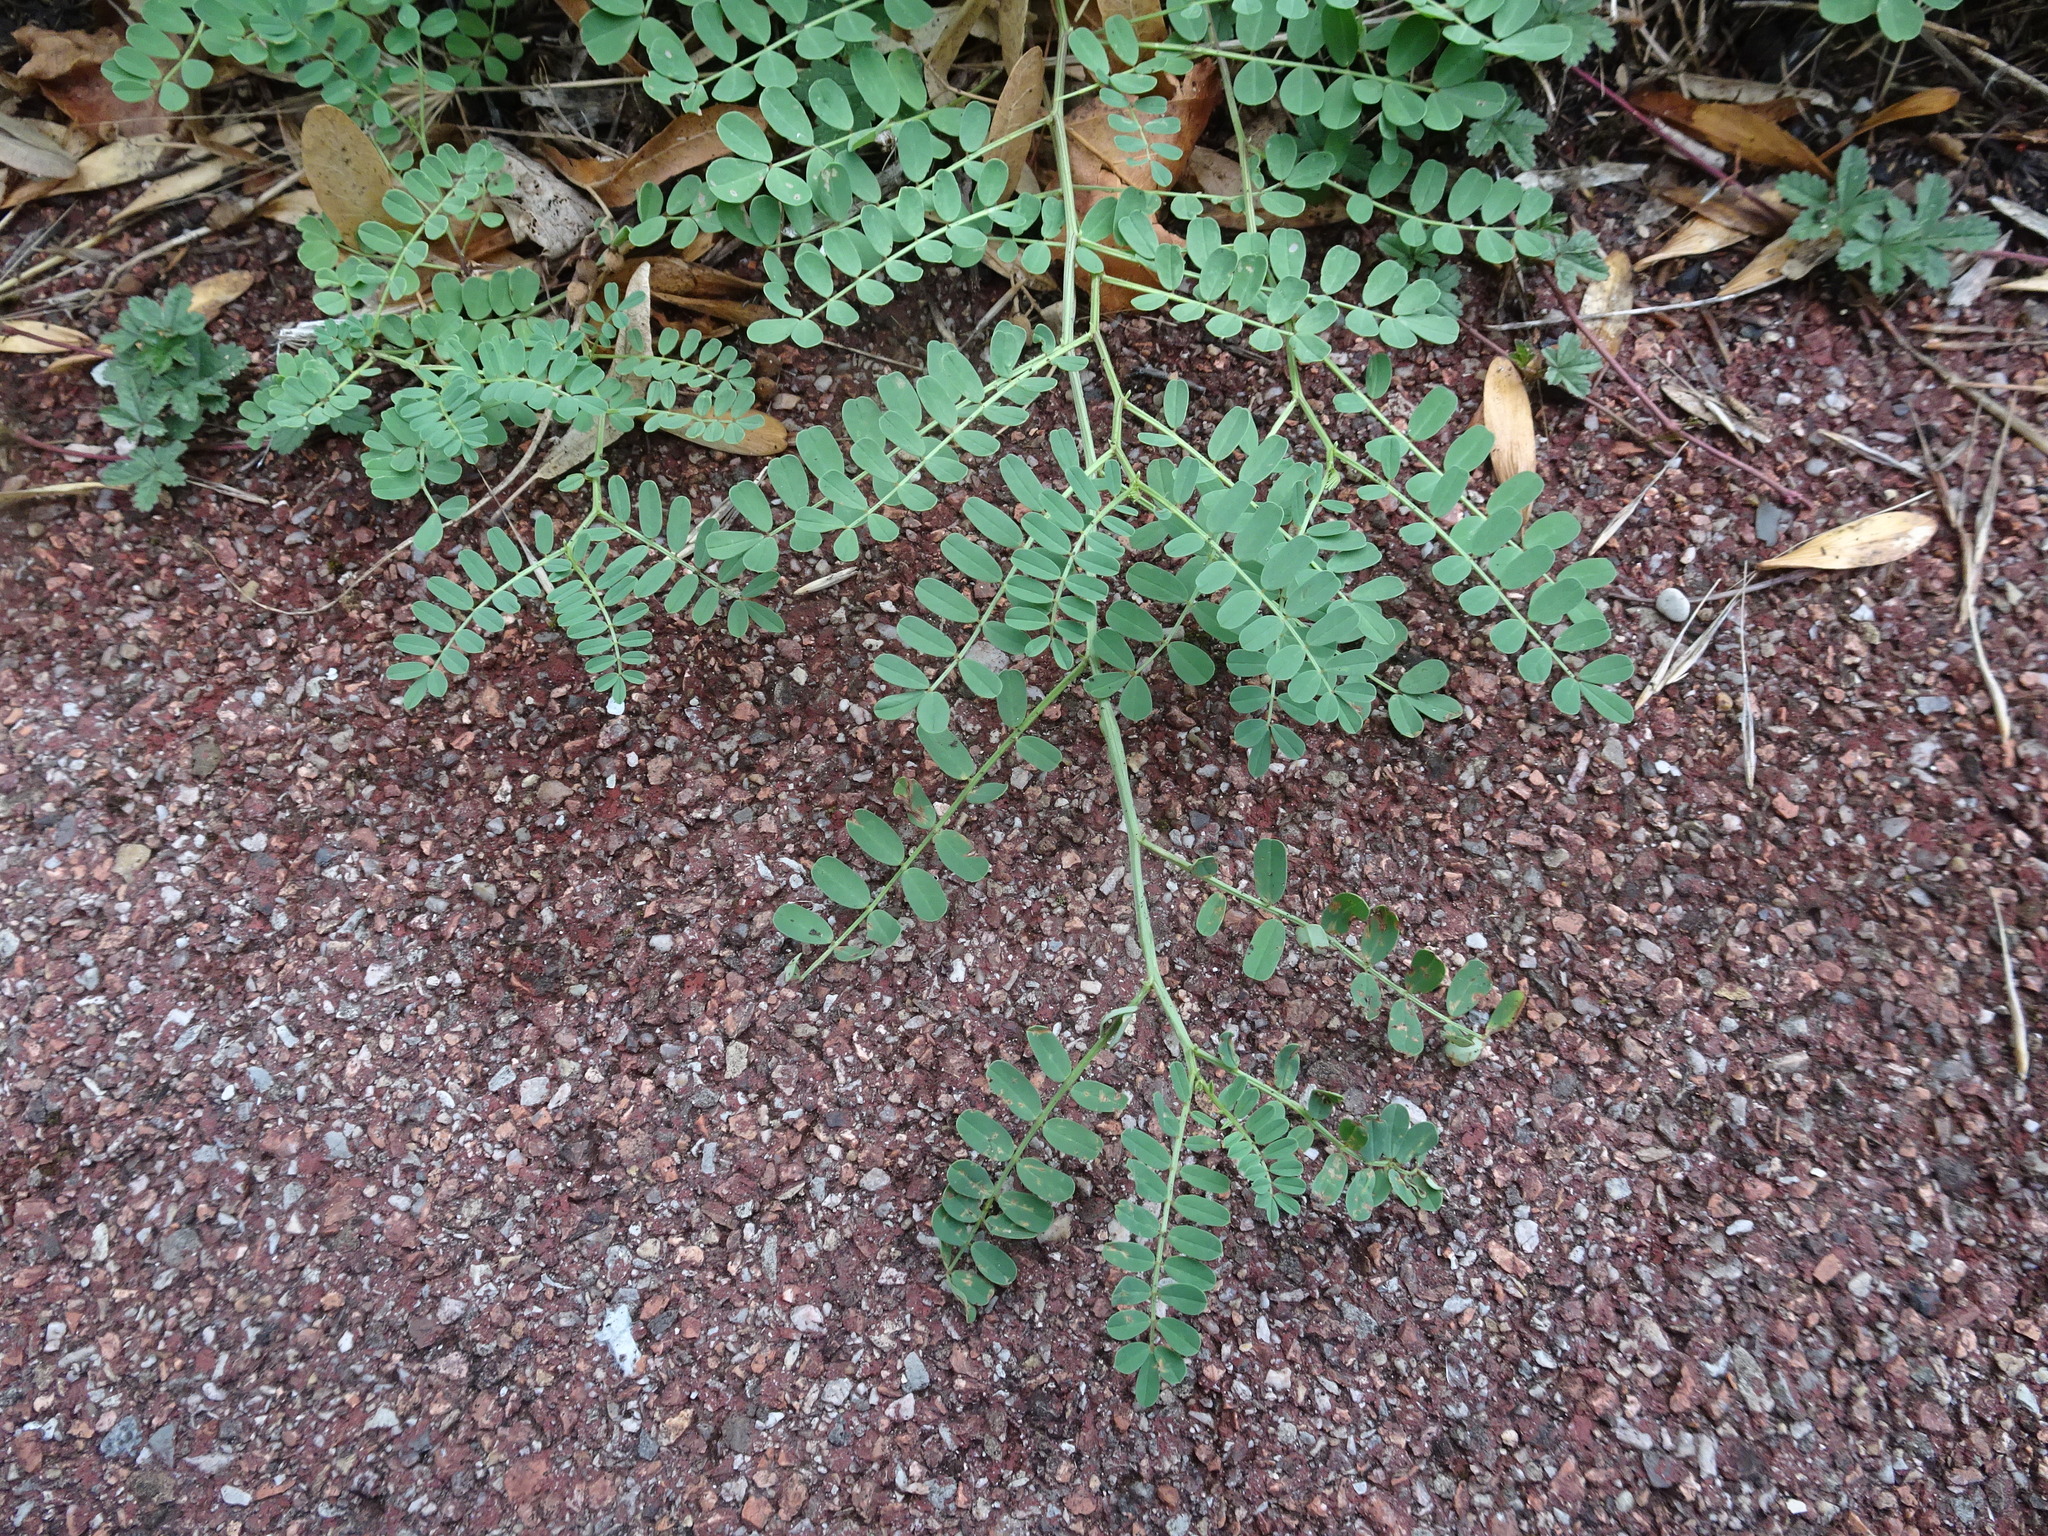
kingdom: Plantae
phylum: Tracheophyta
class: Magnoliopsida
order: Fabales
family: Fabaceae
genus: Coronilla
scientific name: Coronilla varia
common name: Crownvetch
